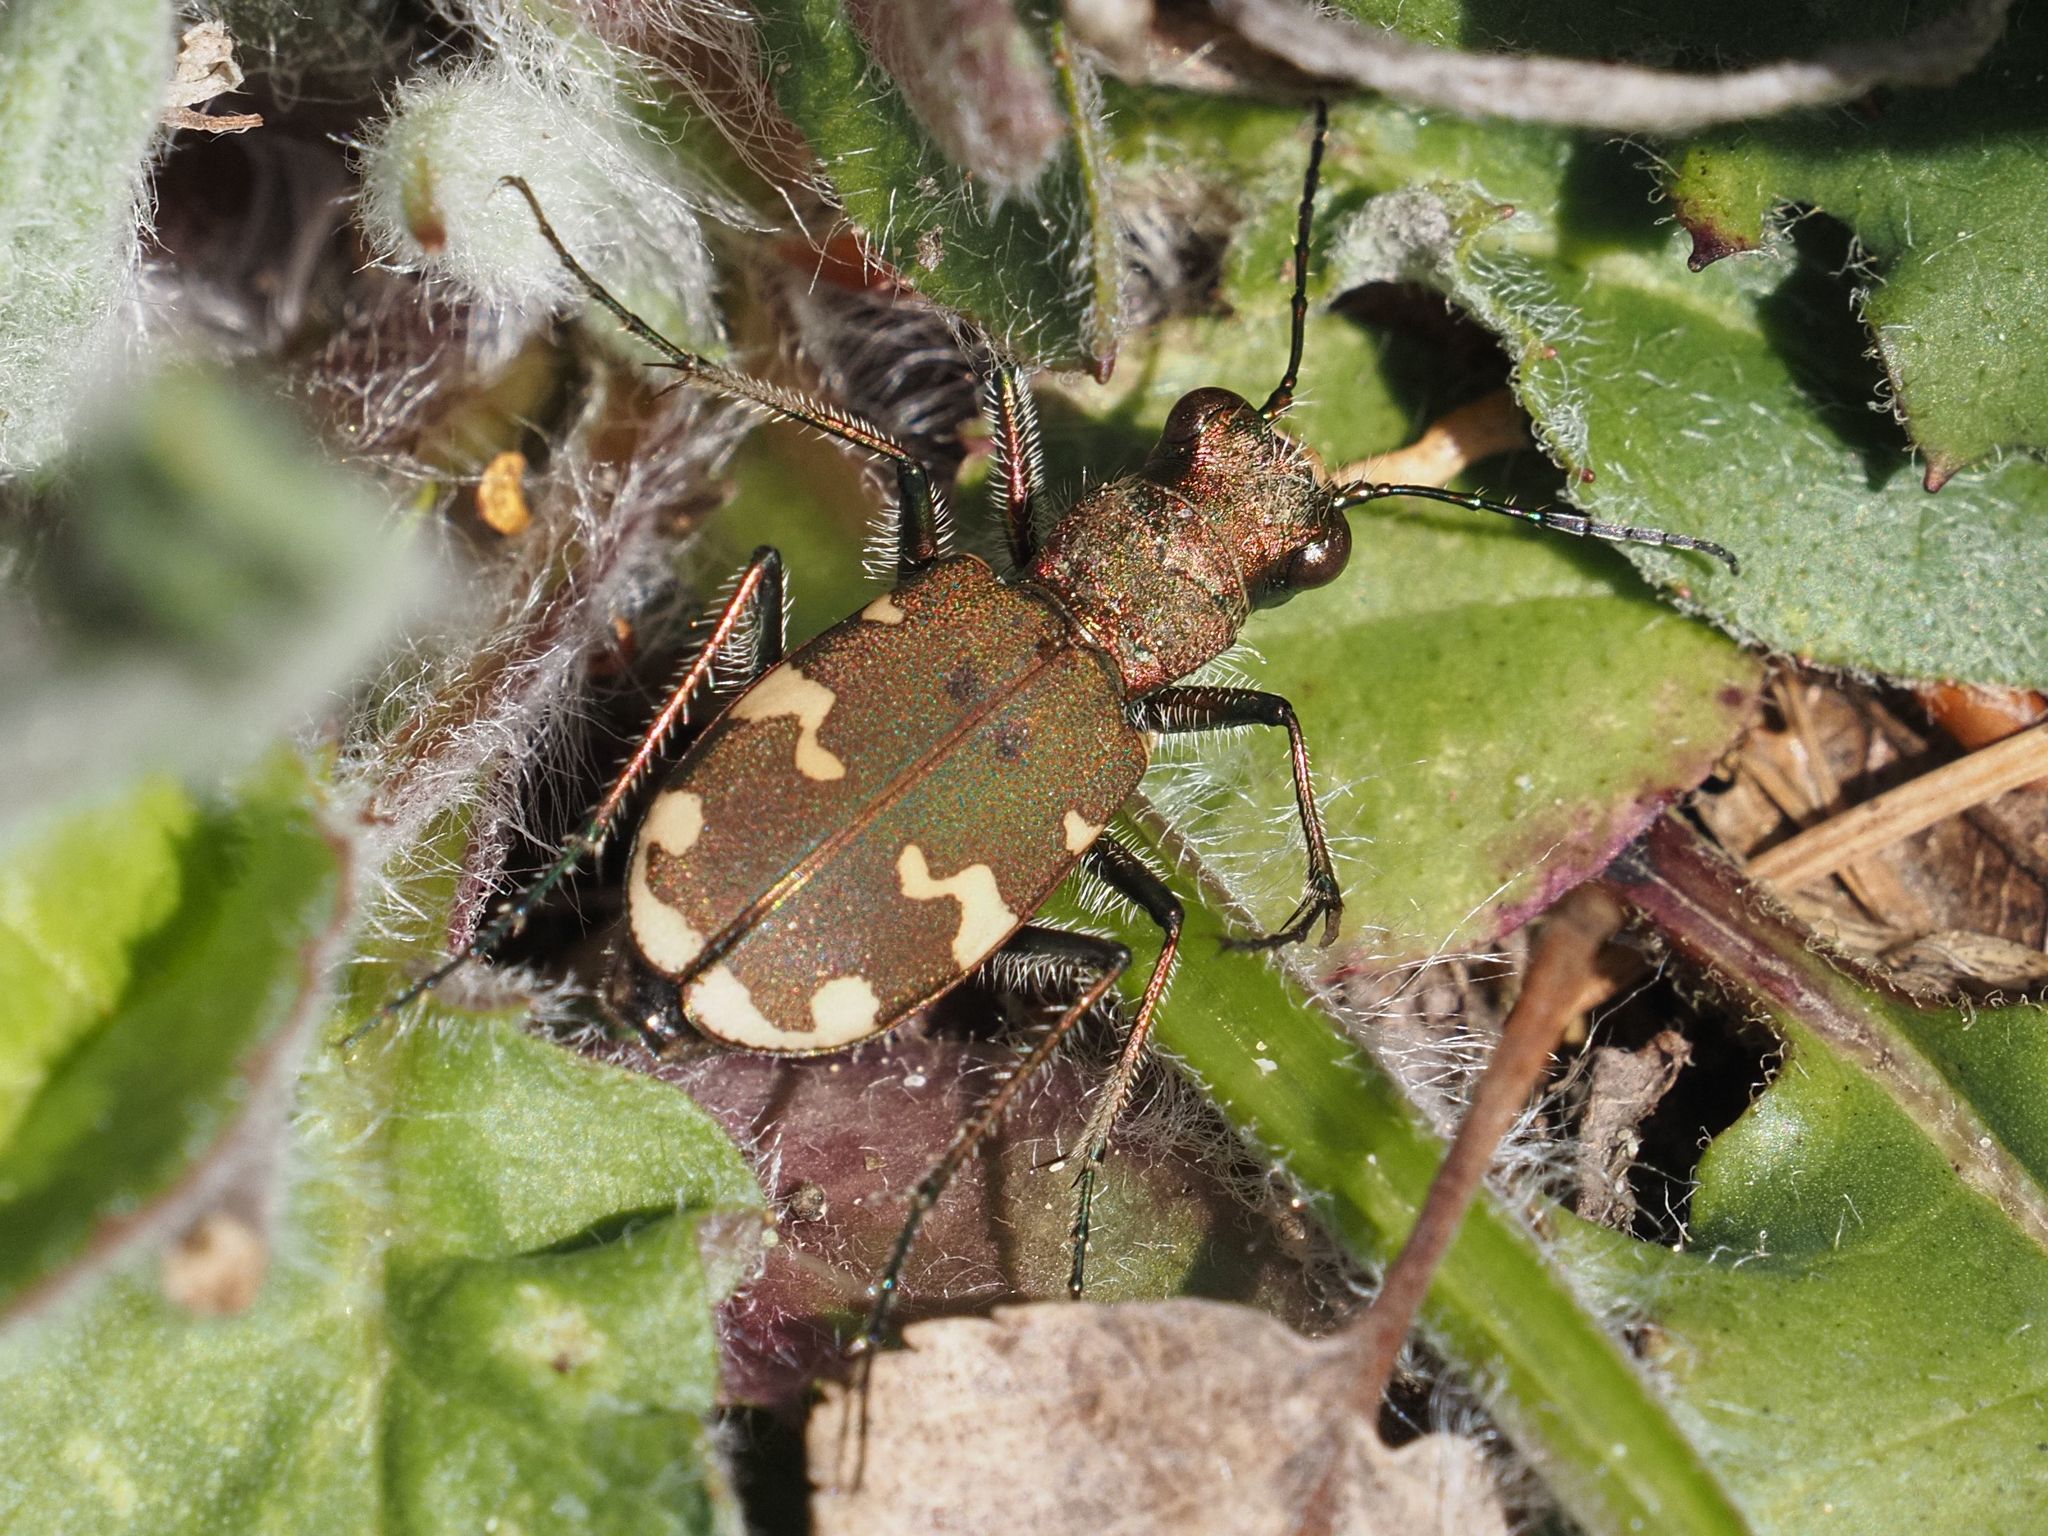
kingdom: Animalia
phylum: Arthropoda
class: Insecta
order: Coleoptera
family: Carabidae
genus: Cicindela
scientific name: Cicindela sylvicola
